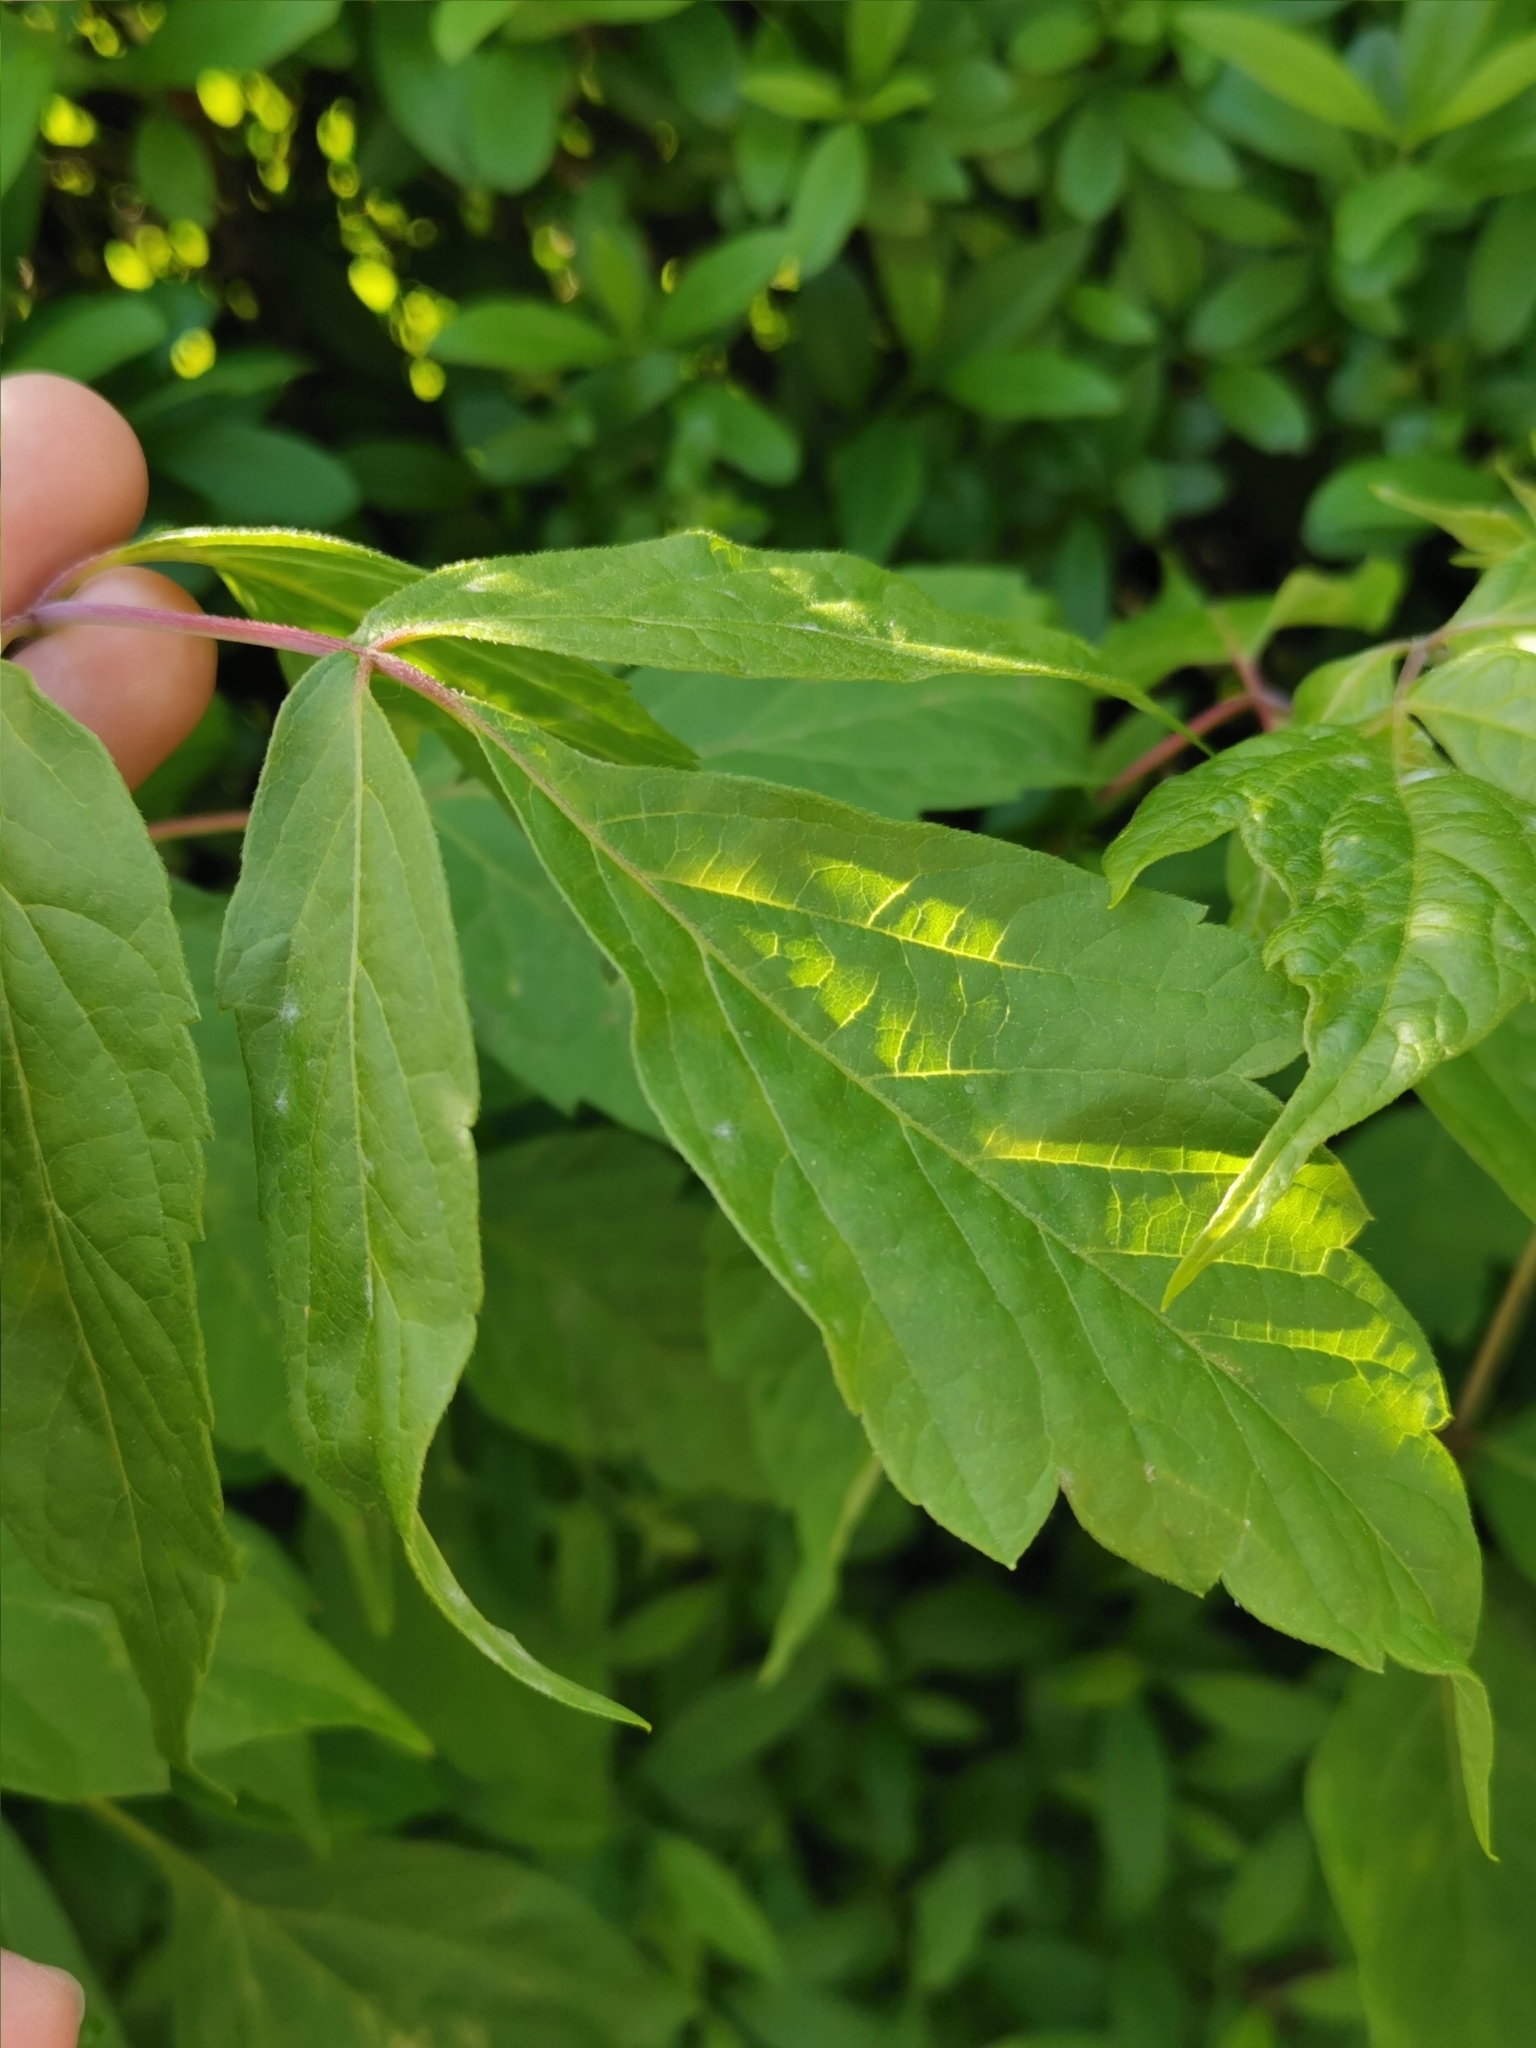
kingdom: Plantae
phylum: Tracheophyta
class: Magnoliopsida
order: Sapindales
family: Sapindaceae
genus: Acer
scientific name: Acer negundo
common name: Ashleaf maple
